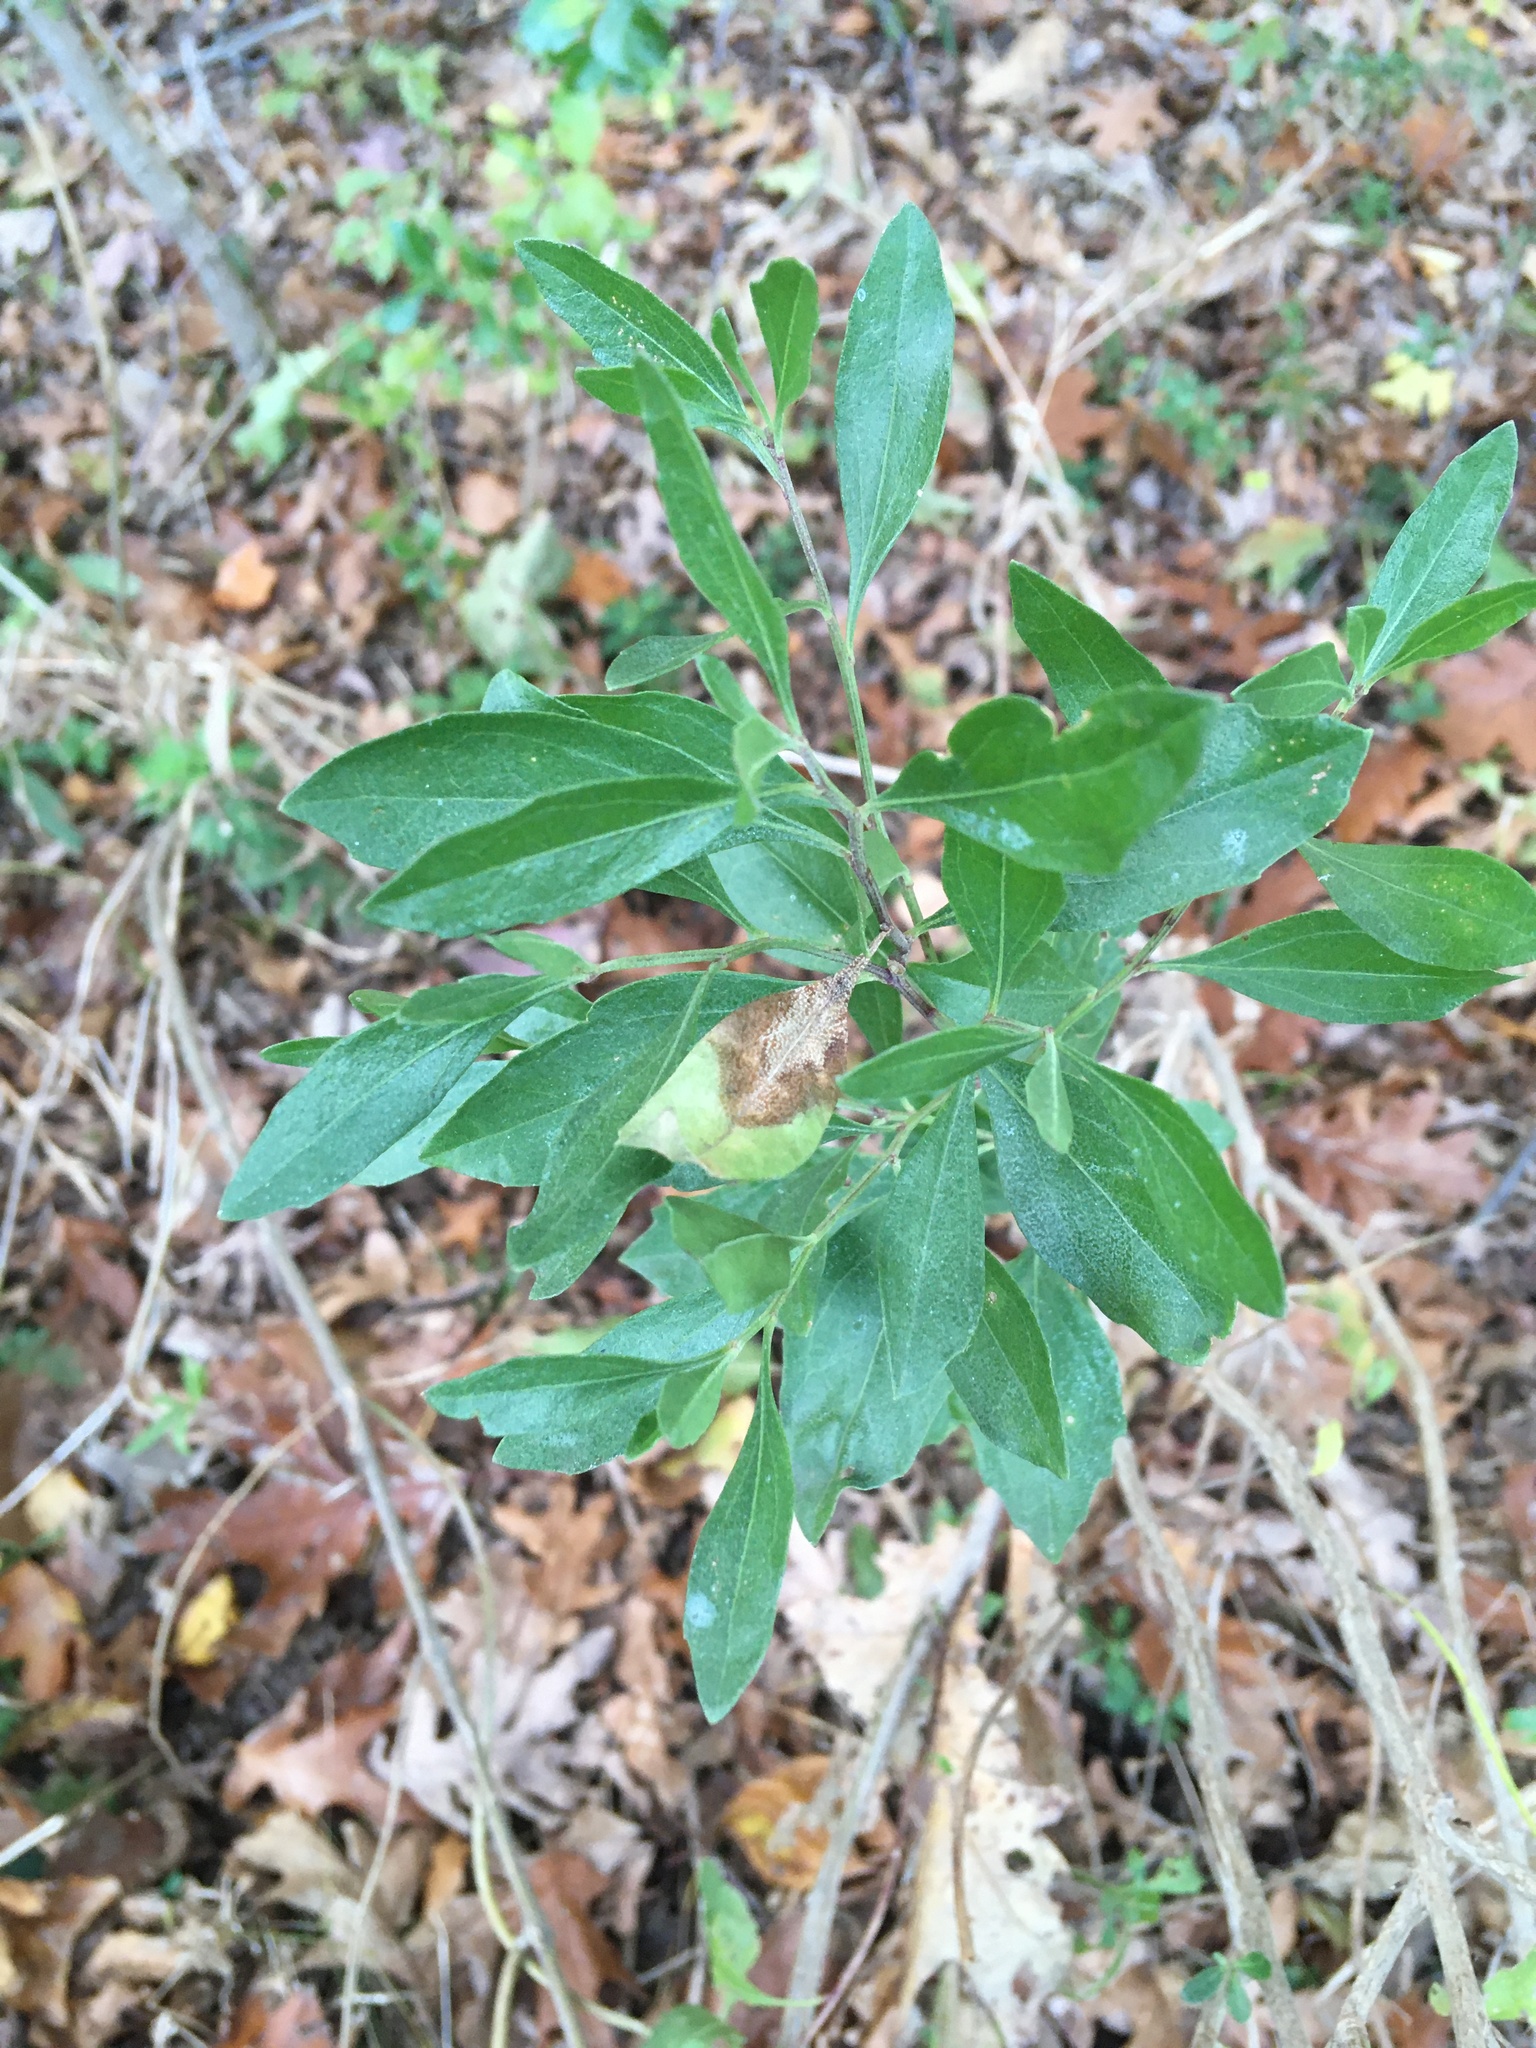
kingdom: Plantae
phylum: Tracheophyta
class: Magnoliopsida
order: Asterales
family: Asteraceae
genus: Baccharis
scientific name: Baccharis halimifolia
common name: Eastern baccharis
